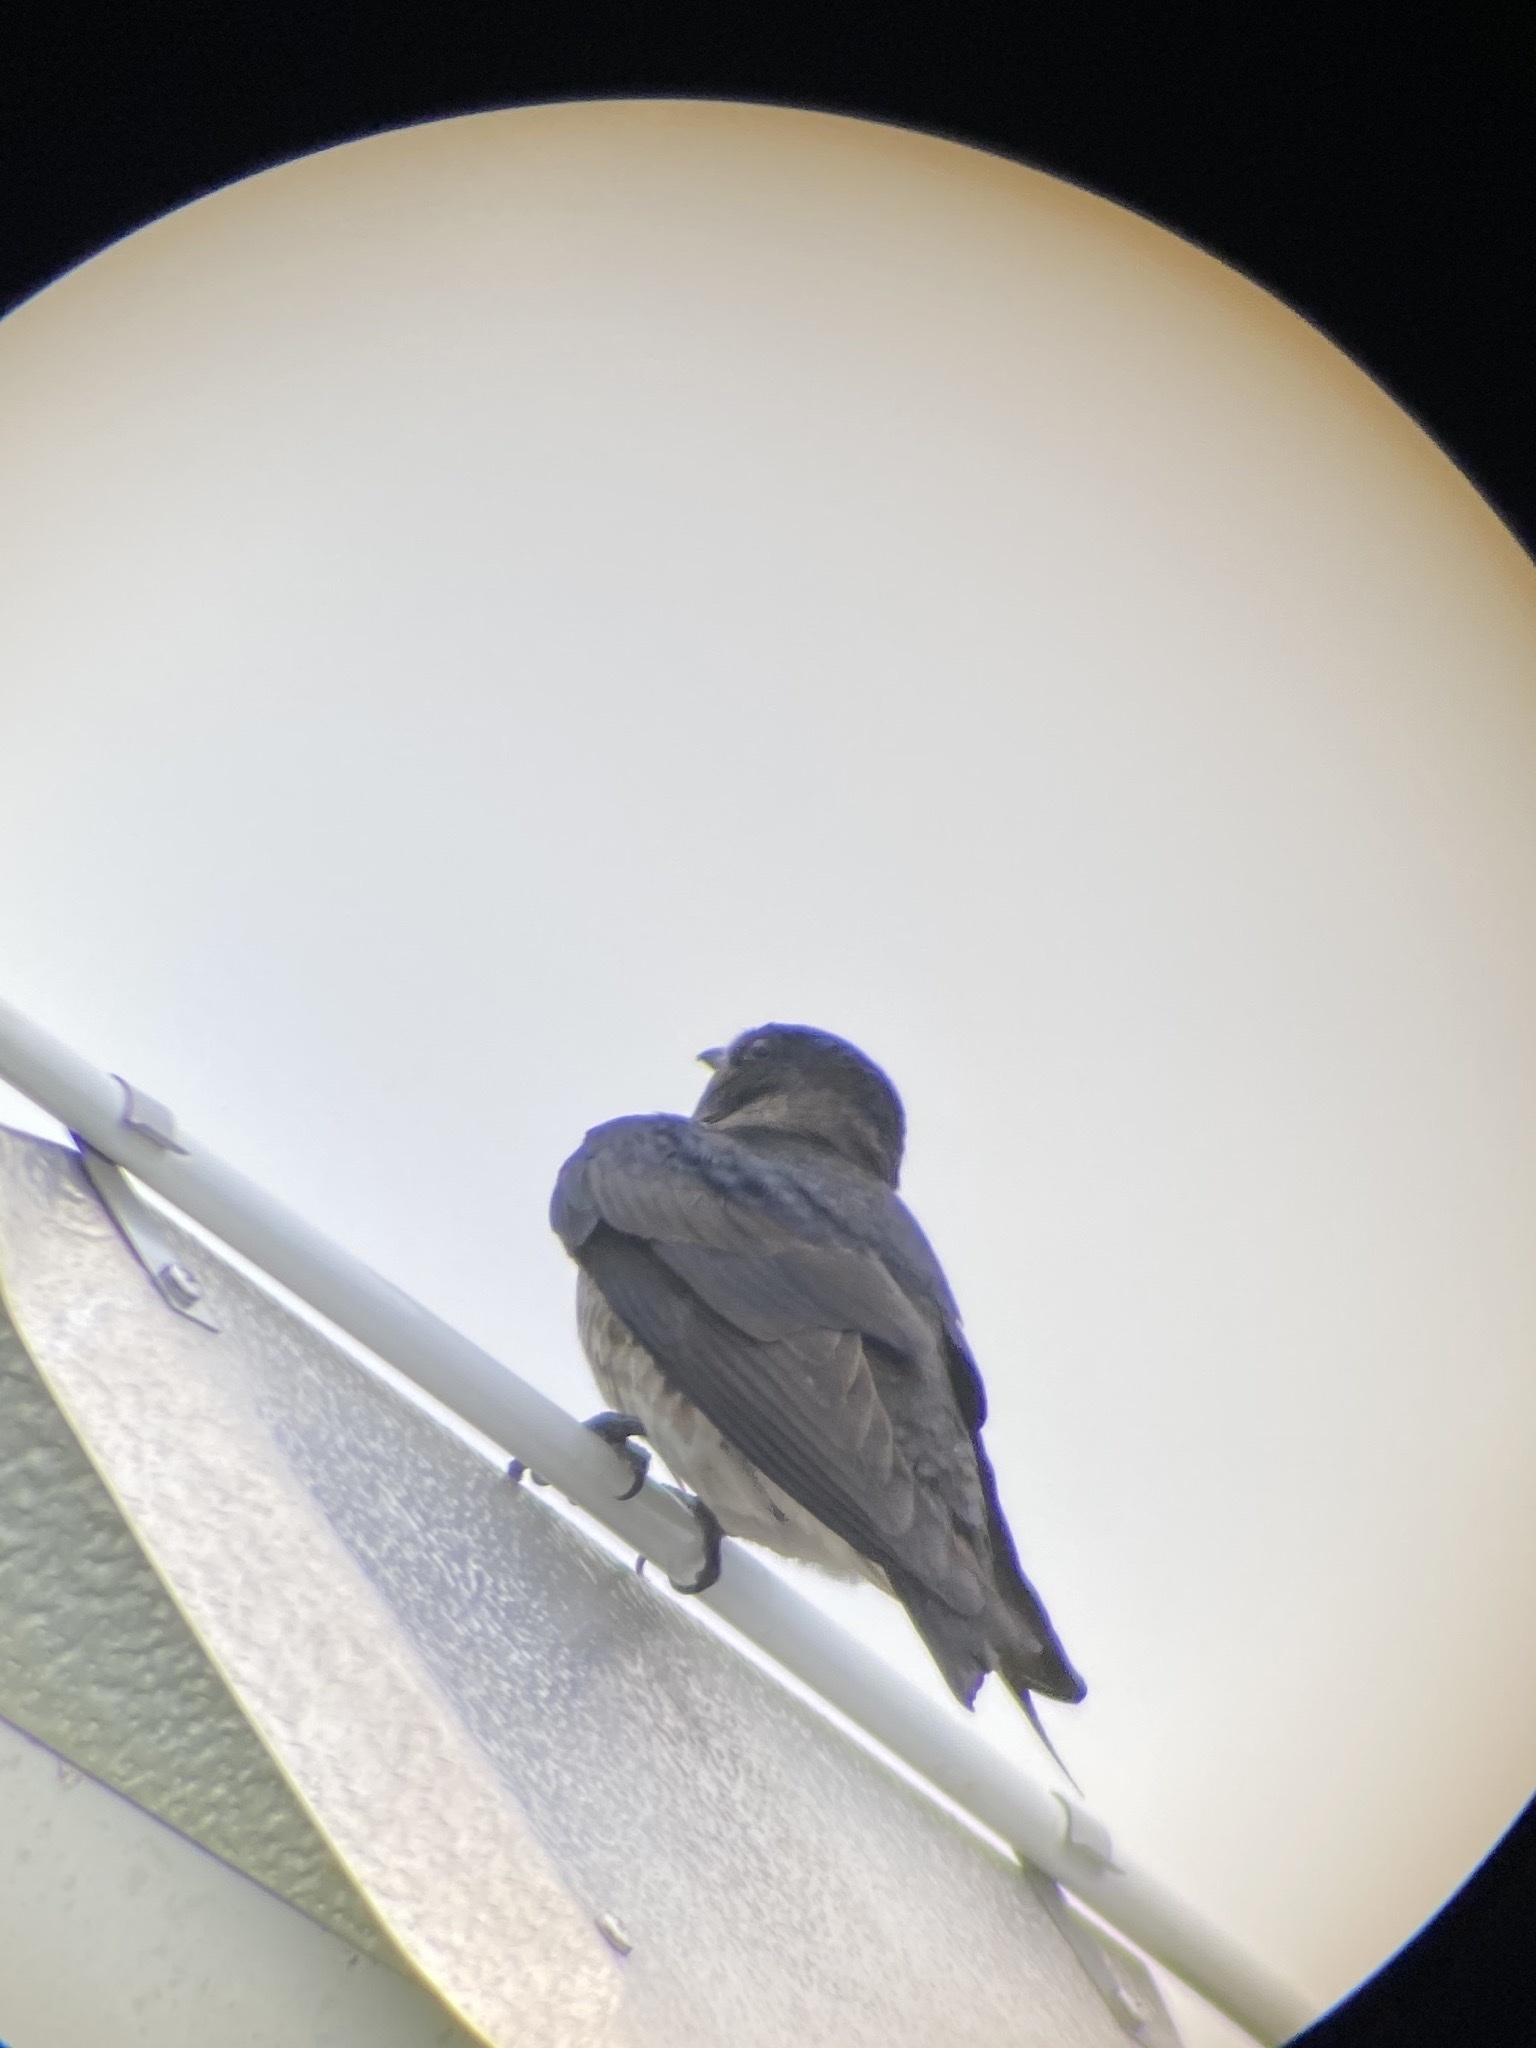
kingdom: Animalia
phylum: Chordata
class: Aves
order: Passeriformes
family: Hirundinidae
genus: Progne
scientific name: Progne subis
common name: Purple martin
